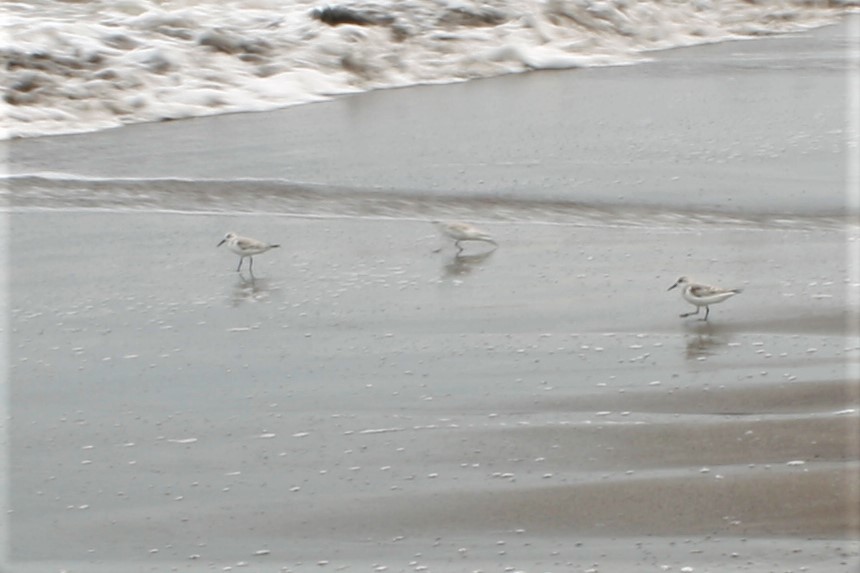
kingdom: Animalia
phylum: Chordata
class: Aves
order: Charadriiformes
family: Scolopacidae
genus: Calidris
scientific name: Calidris alba
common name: Sanderling
